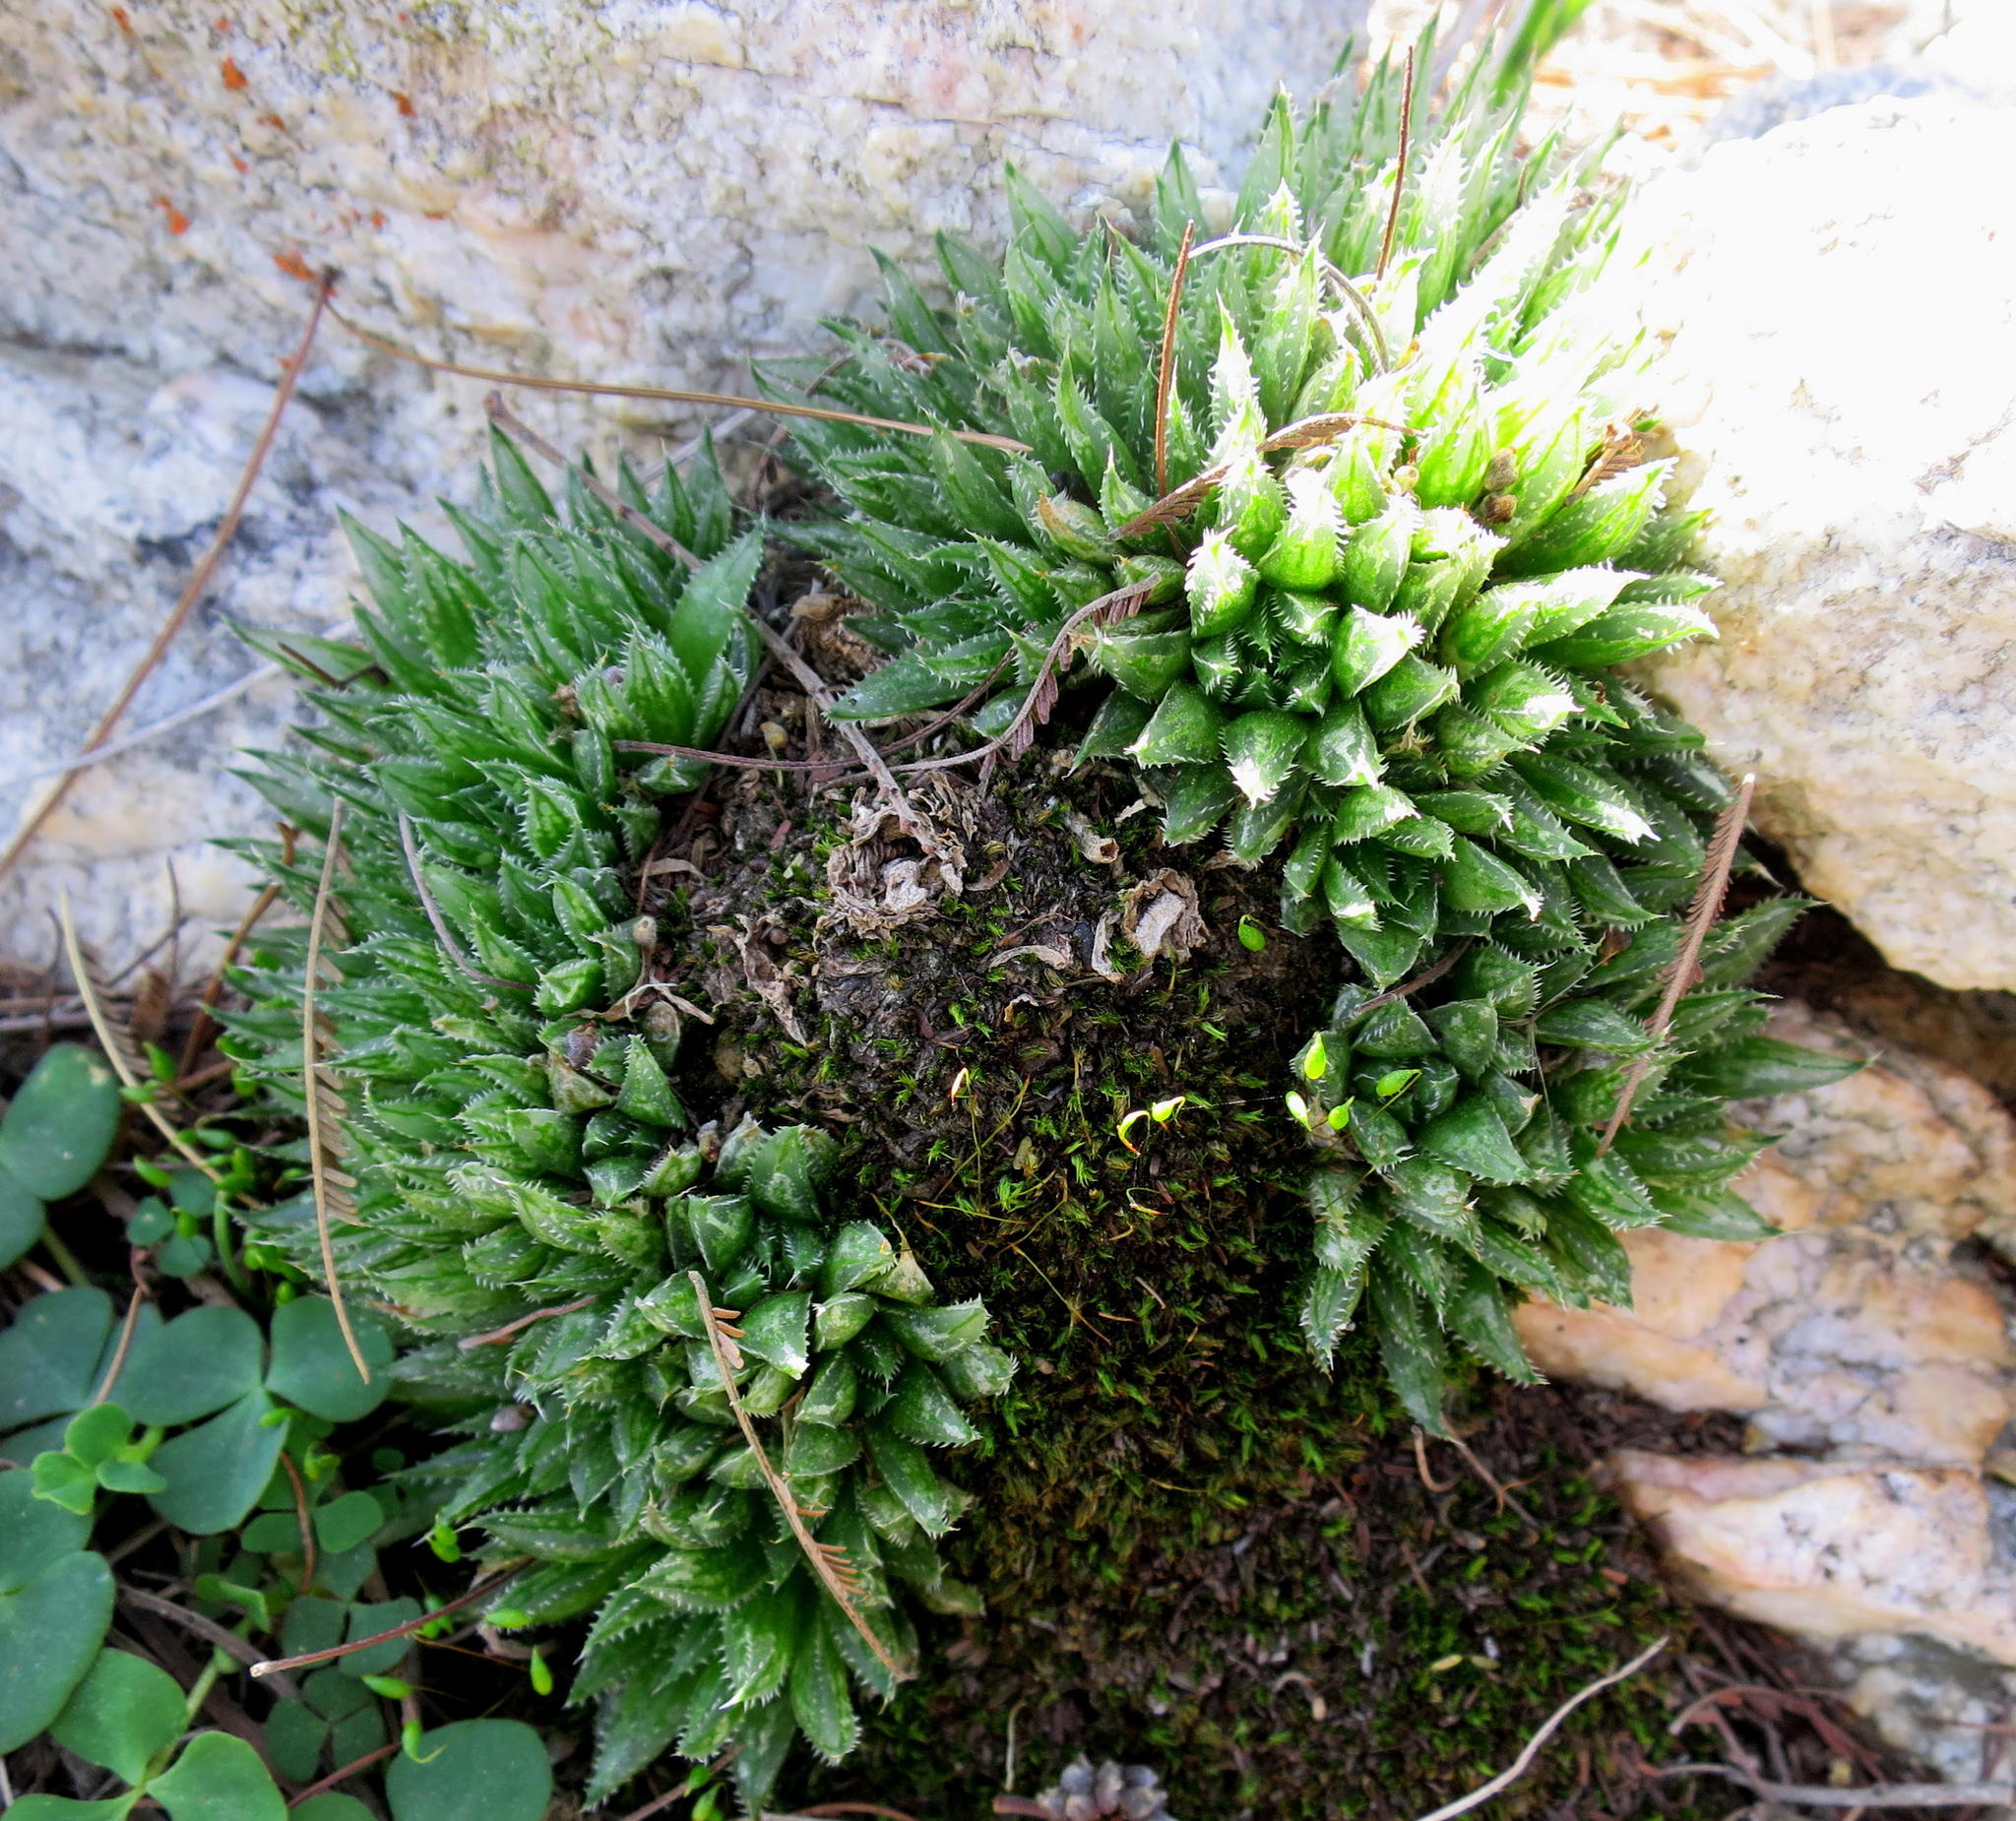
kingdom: Plantae
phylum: Tracheophyta
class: Liliopsida
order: Asparagales
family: Asphodelaceae
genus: Haworthia
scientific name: Haworthia outeniquensis
